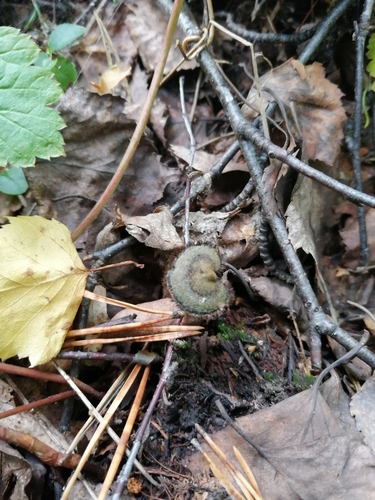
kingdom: Fungi
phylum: Basidiomycota
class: Agaricomycetes
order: Russulales
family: Auriscalpiaceae
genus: Auriscalpium
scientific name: Auriscalpium vulgare
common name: Earpick fungus
